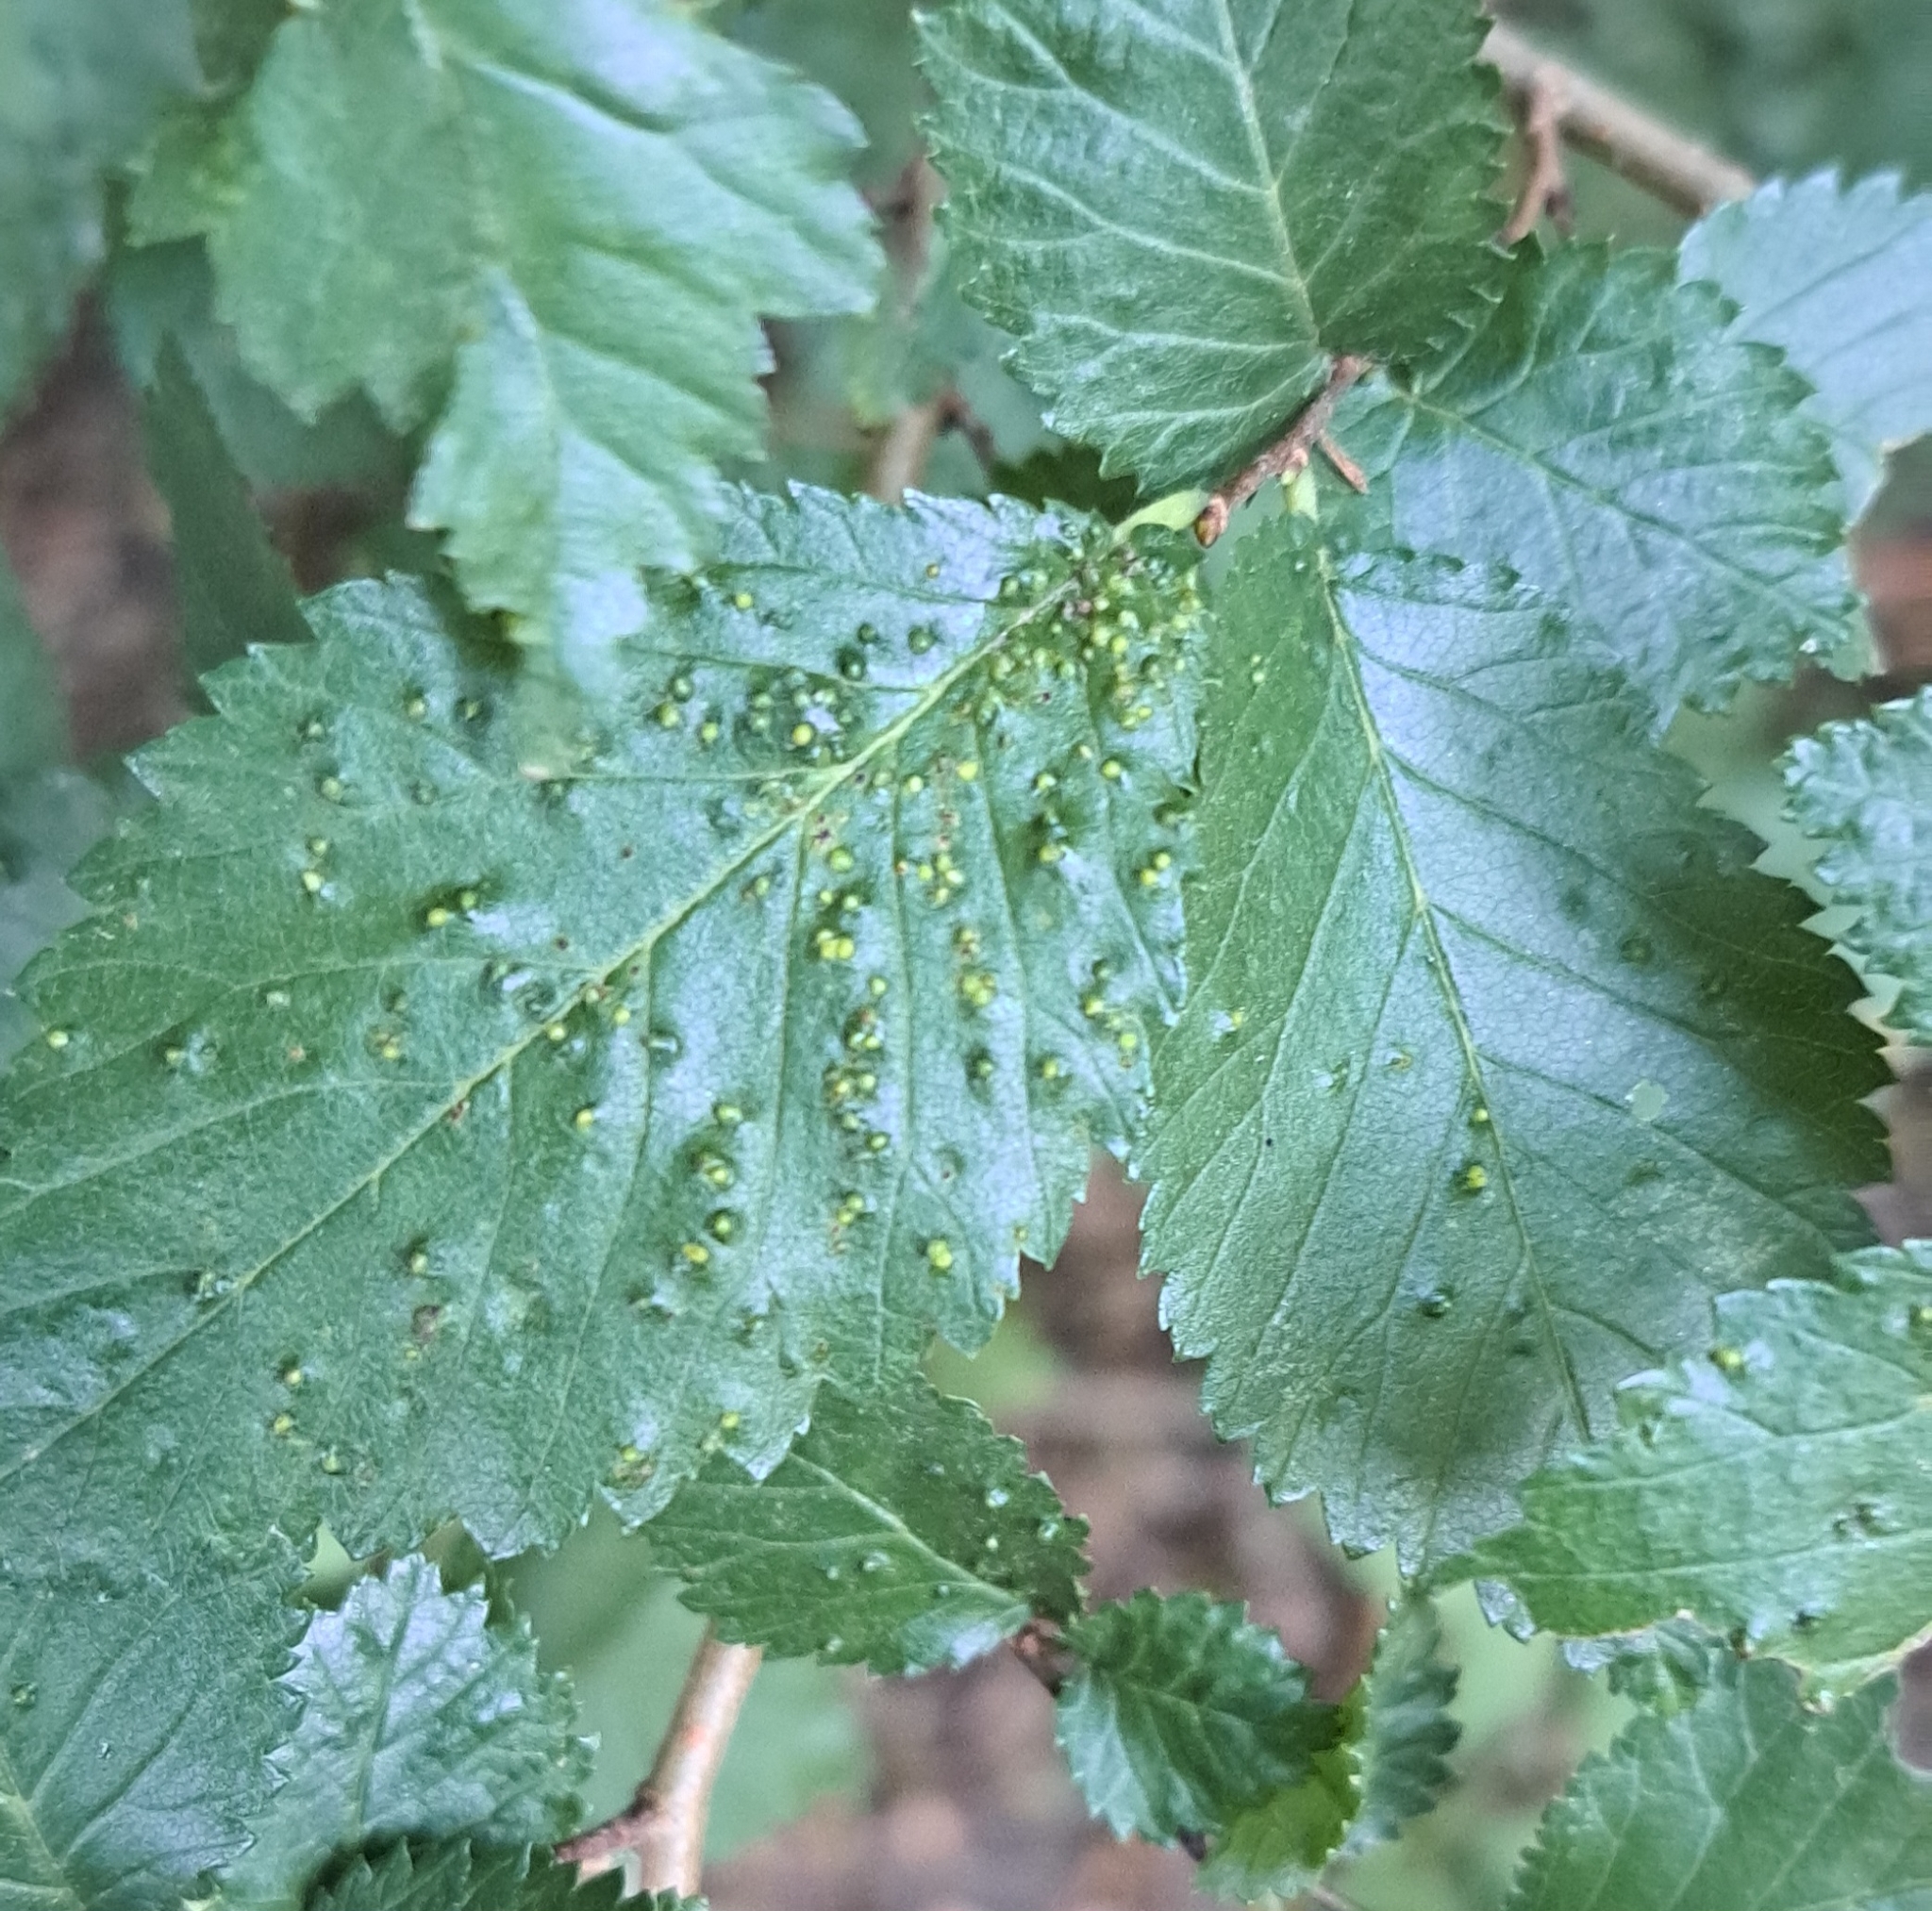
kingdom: Animalia
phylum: Arthropoda
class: Arachnida
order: Trombidiformes
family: Eriophyidae
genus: Aceria
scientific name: Aceria brevipunctata
